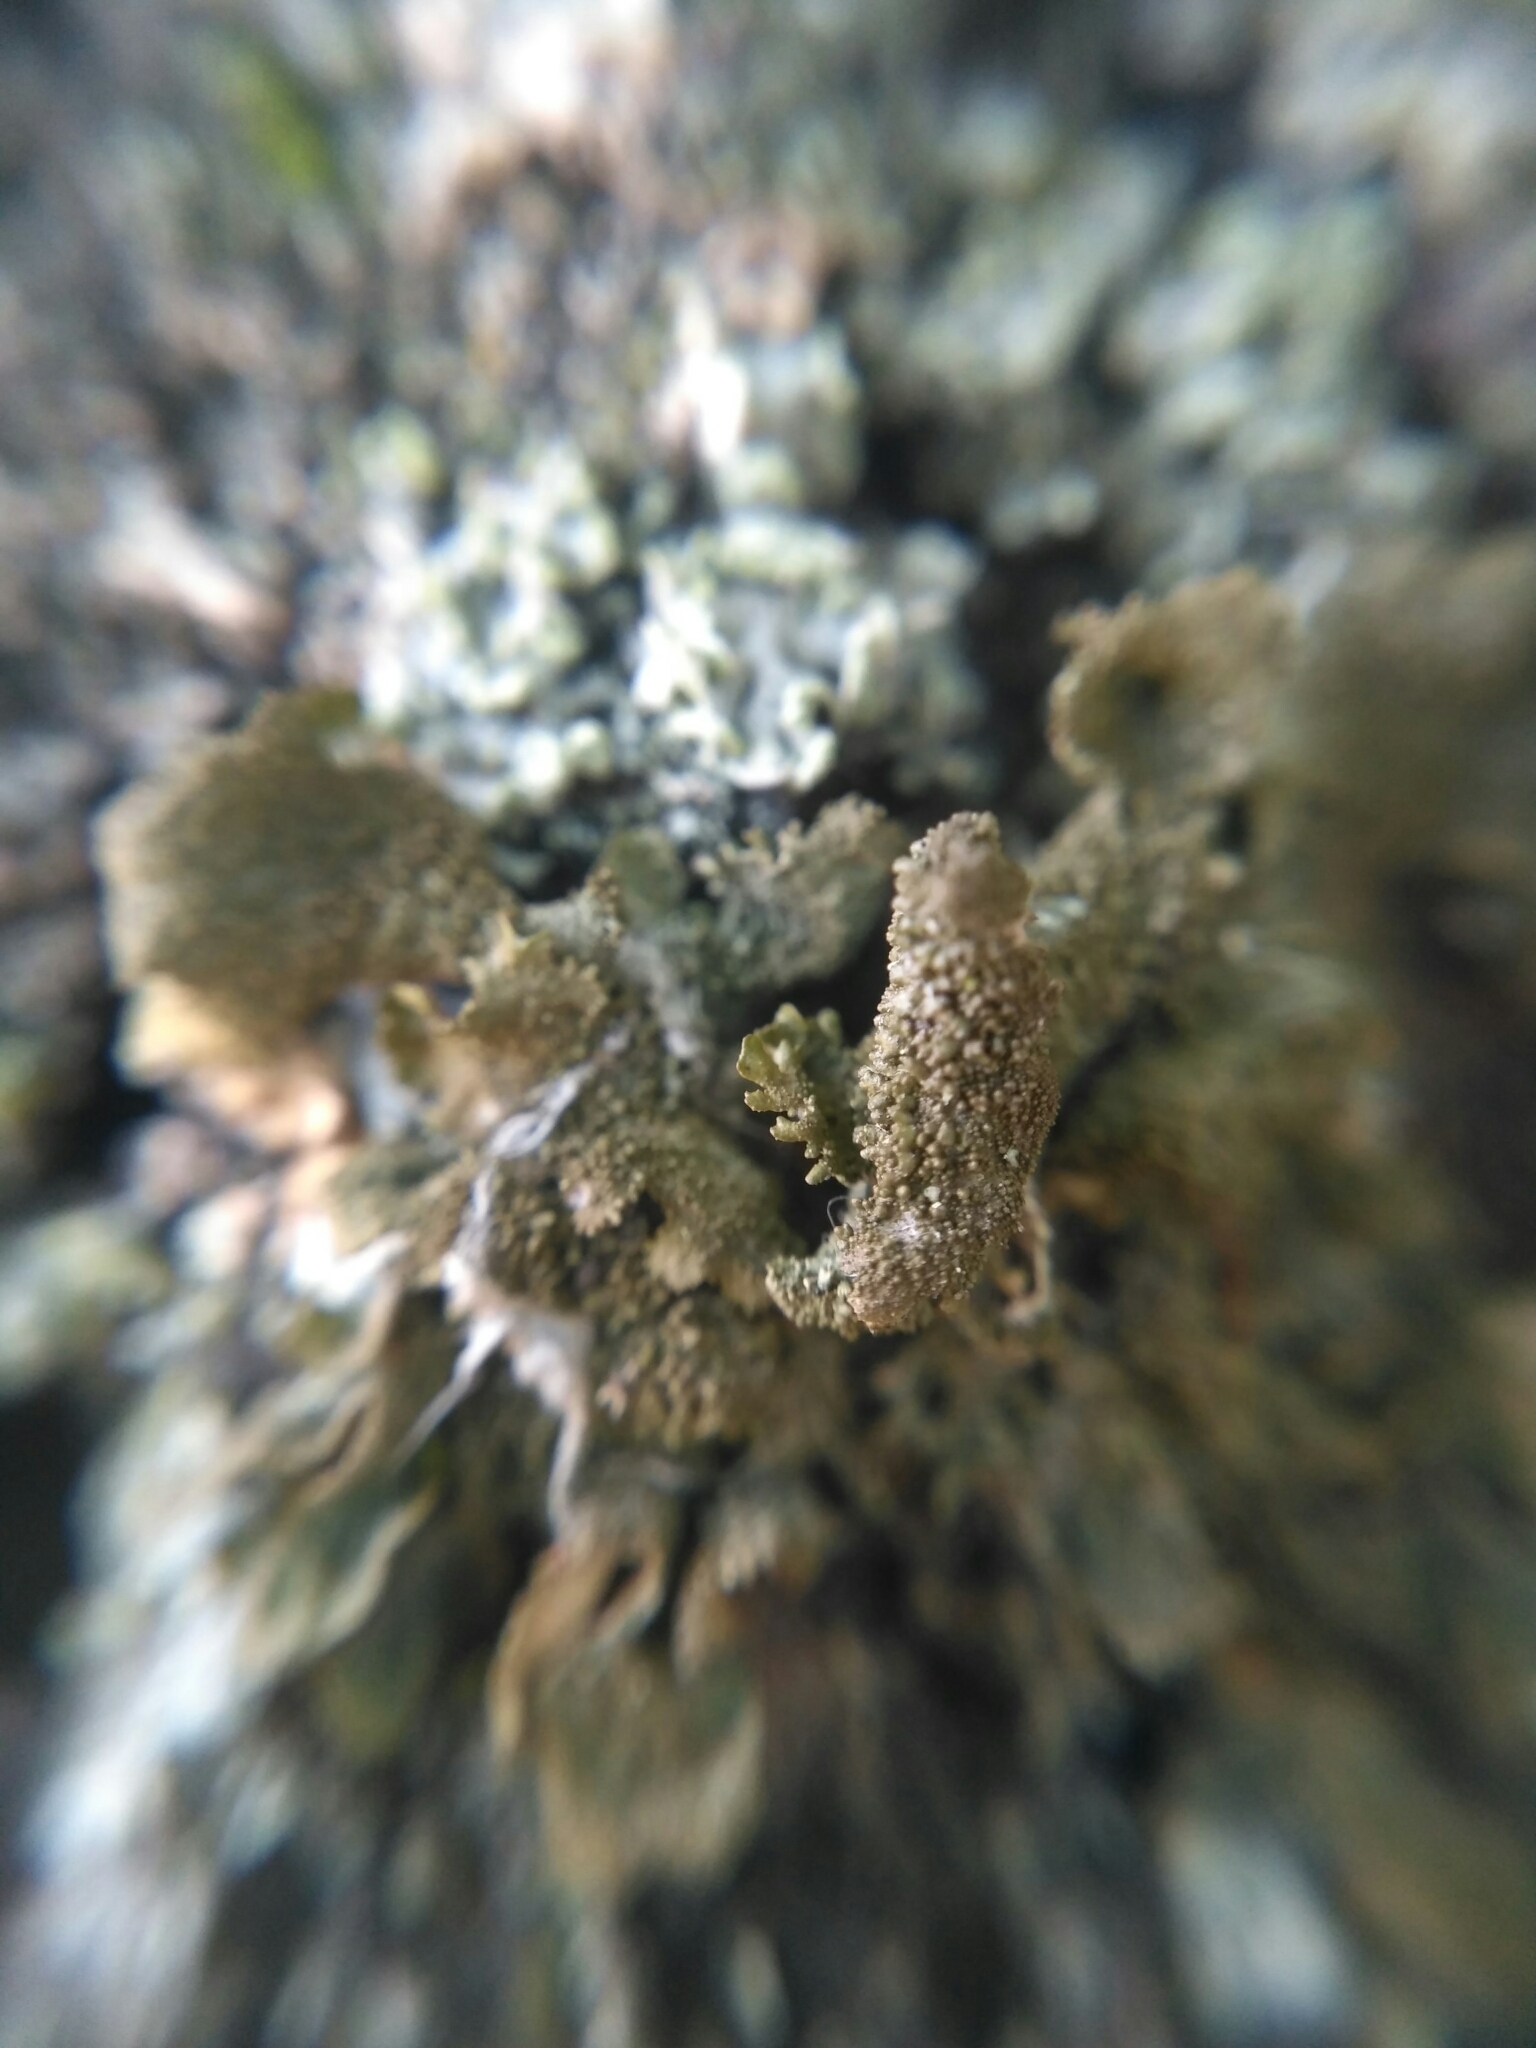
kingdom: Fungi
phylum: Ascomycota
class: Lecanoromycetes
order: Lecanorales
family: Parmeliaceae
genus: Melanohalea
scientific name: Melanohalea exasperatula
